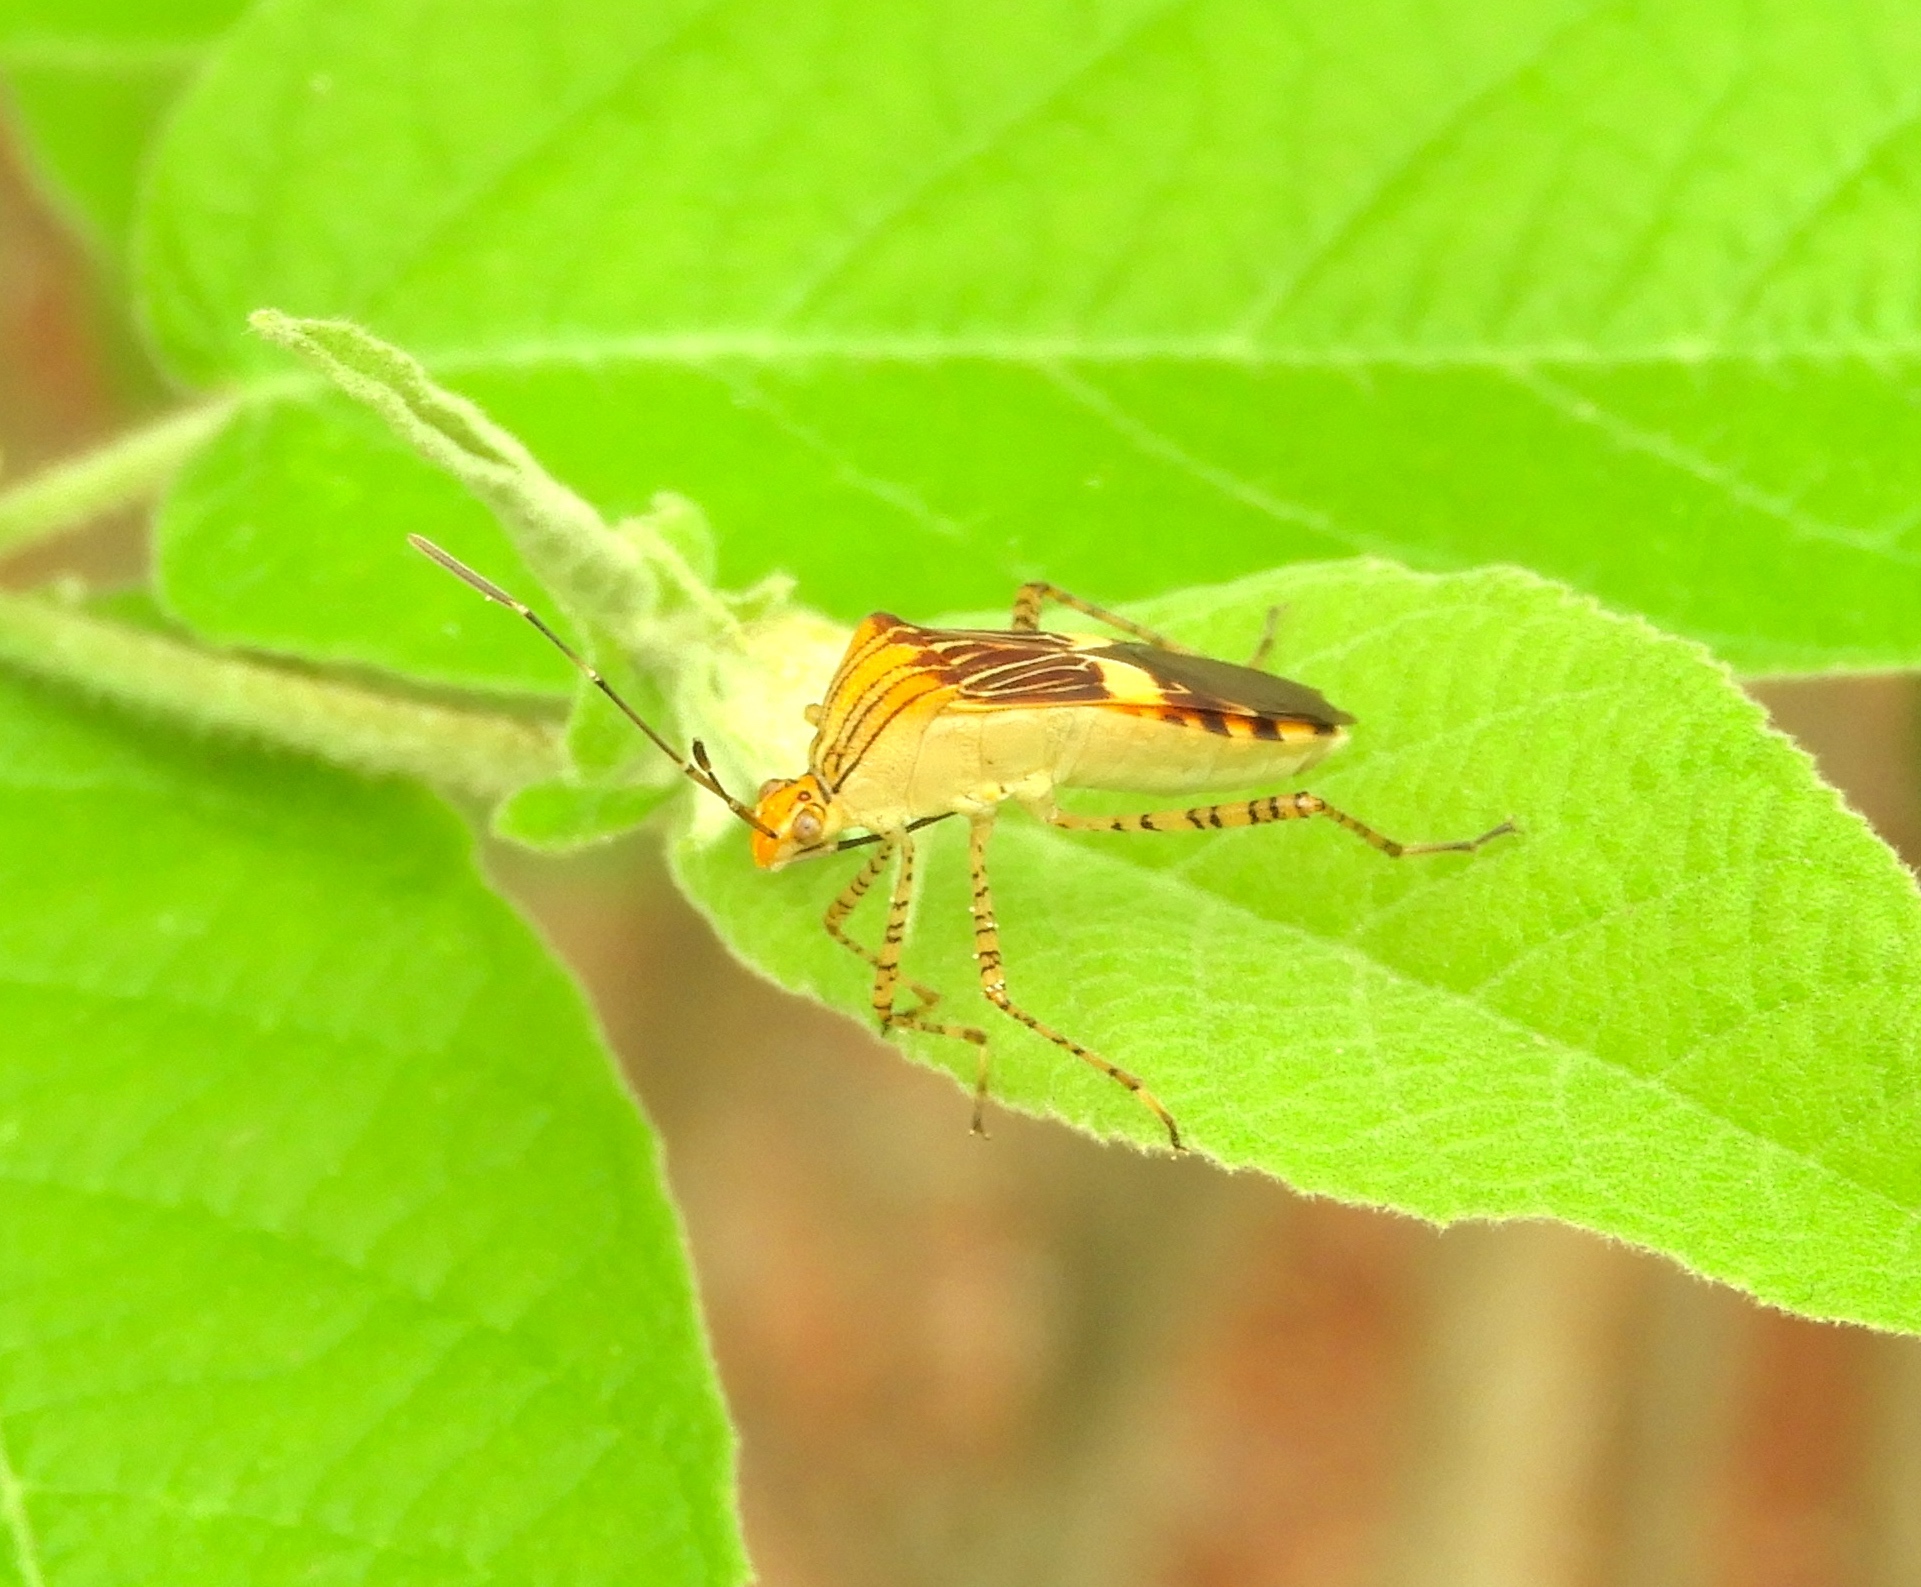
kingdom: Animalia
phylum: Arthropoda
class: Insecta
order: Hemiptera
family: Coreidae
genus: Hypselonotus
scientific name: Hypselonotus lineatus
